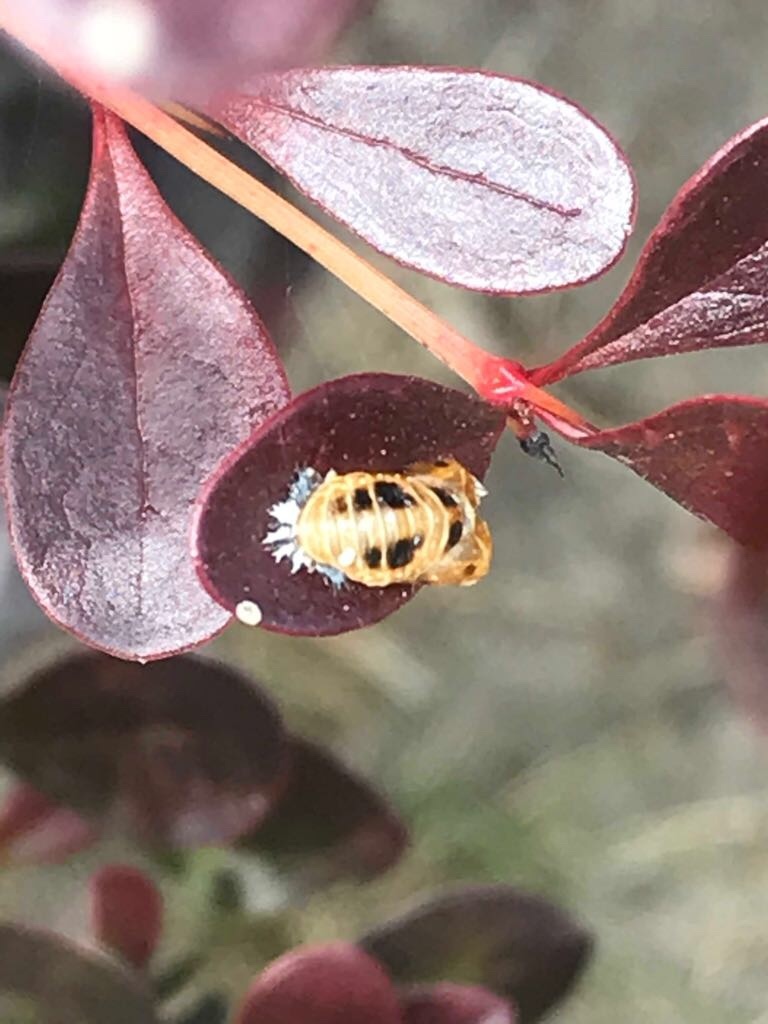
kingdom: Animalia
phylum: Arthropoda
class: Insecta
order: Coleoptera
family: Coccinellidae
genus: Harmonia
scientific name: Harmonia axyridis
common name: Harlequin ladybird
